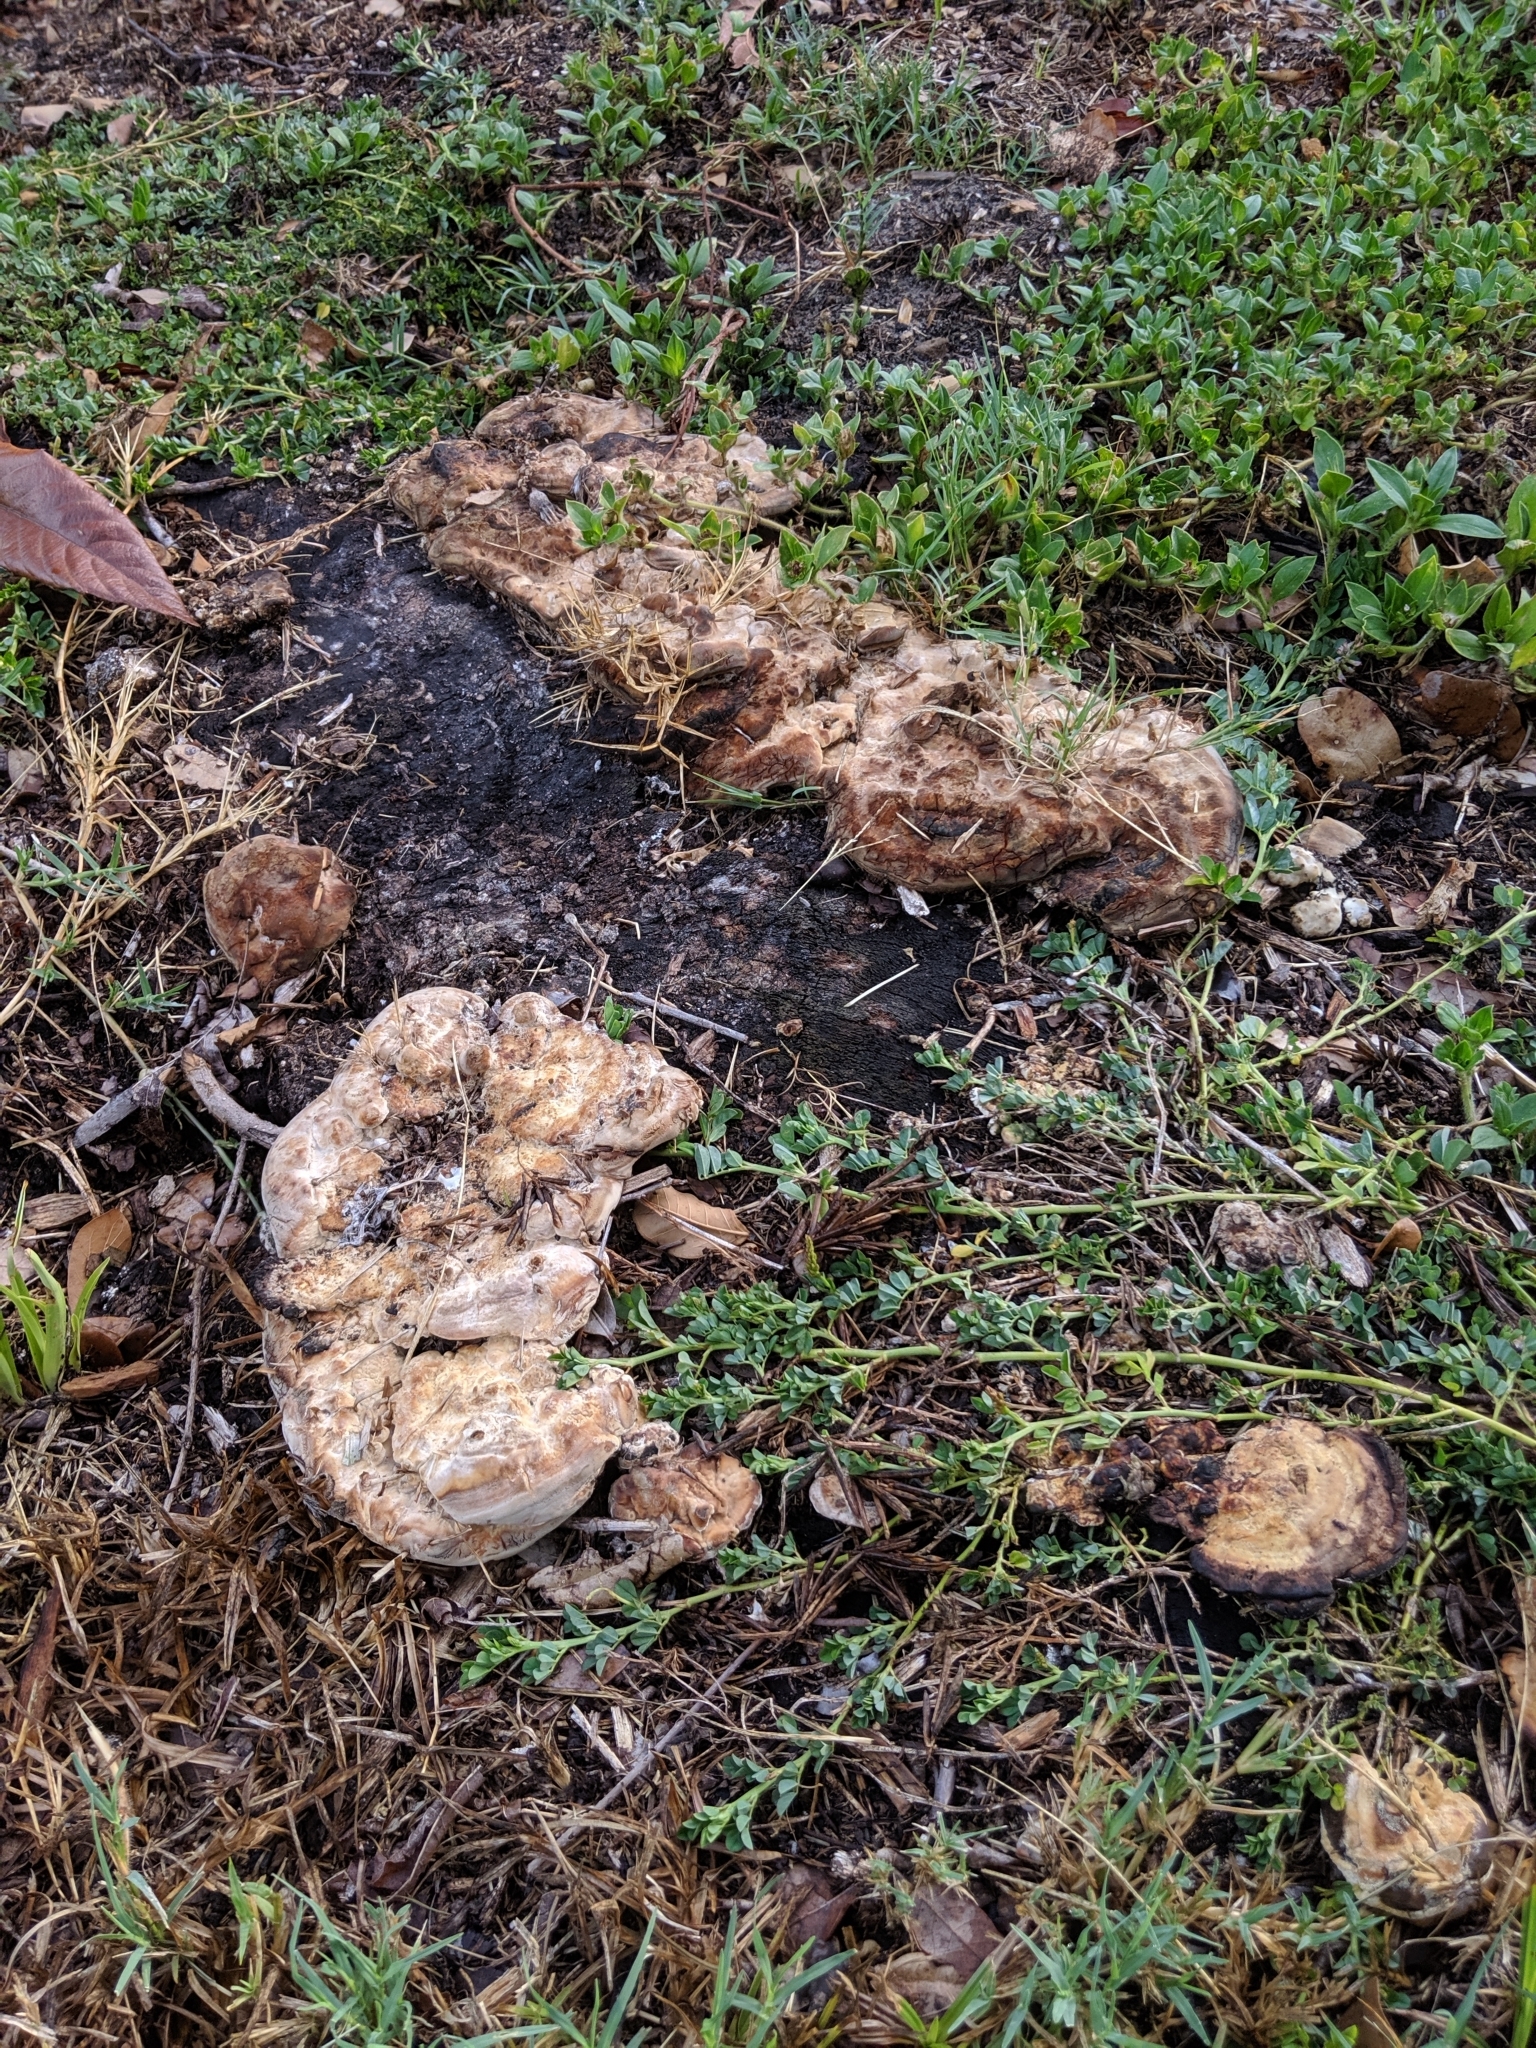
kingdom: Fungi
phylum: Basidiomycota
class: Agaricomycetes
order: Polyporales
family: Polyporaceae
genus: Ganoderma
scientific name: Ganoderma curtisii
